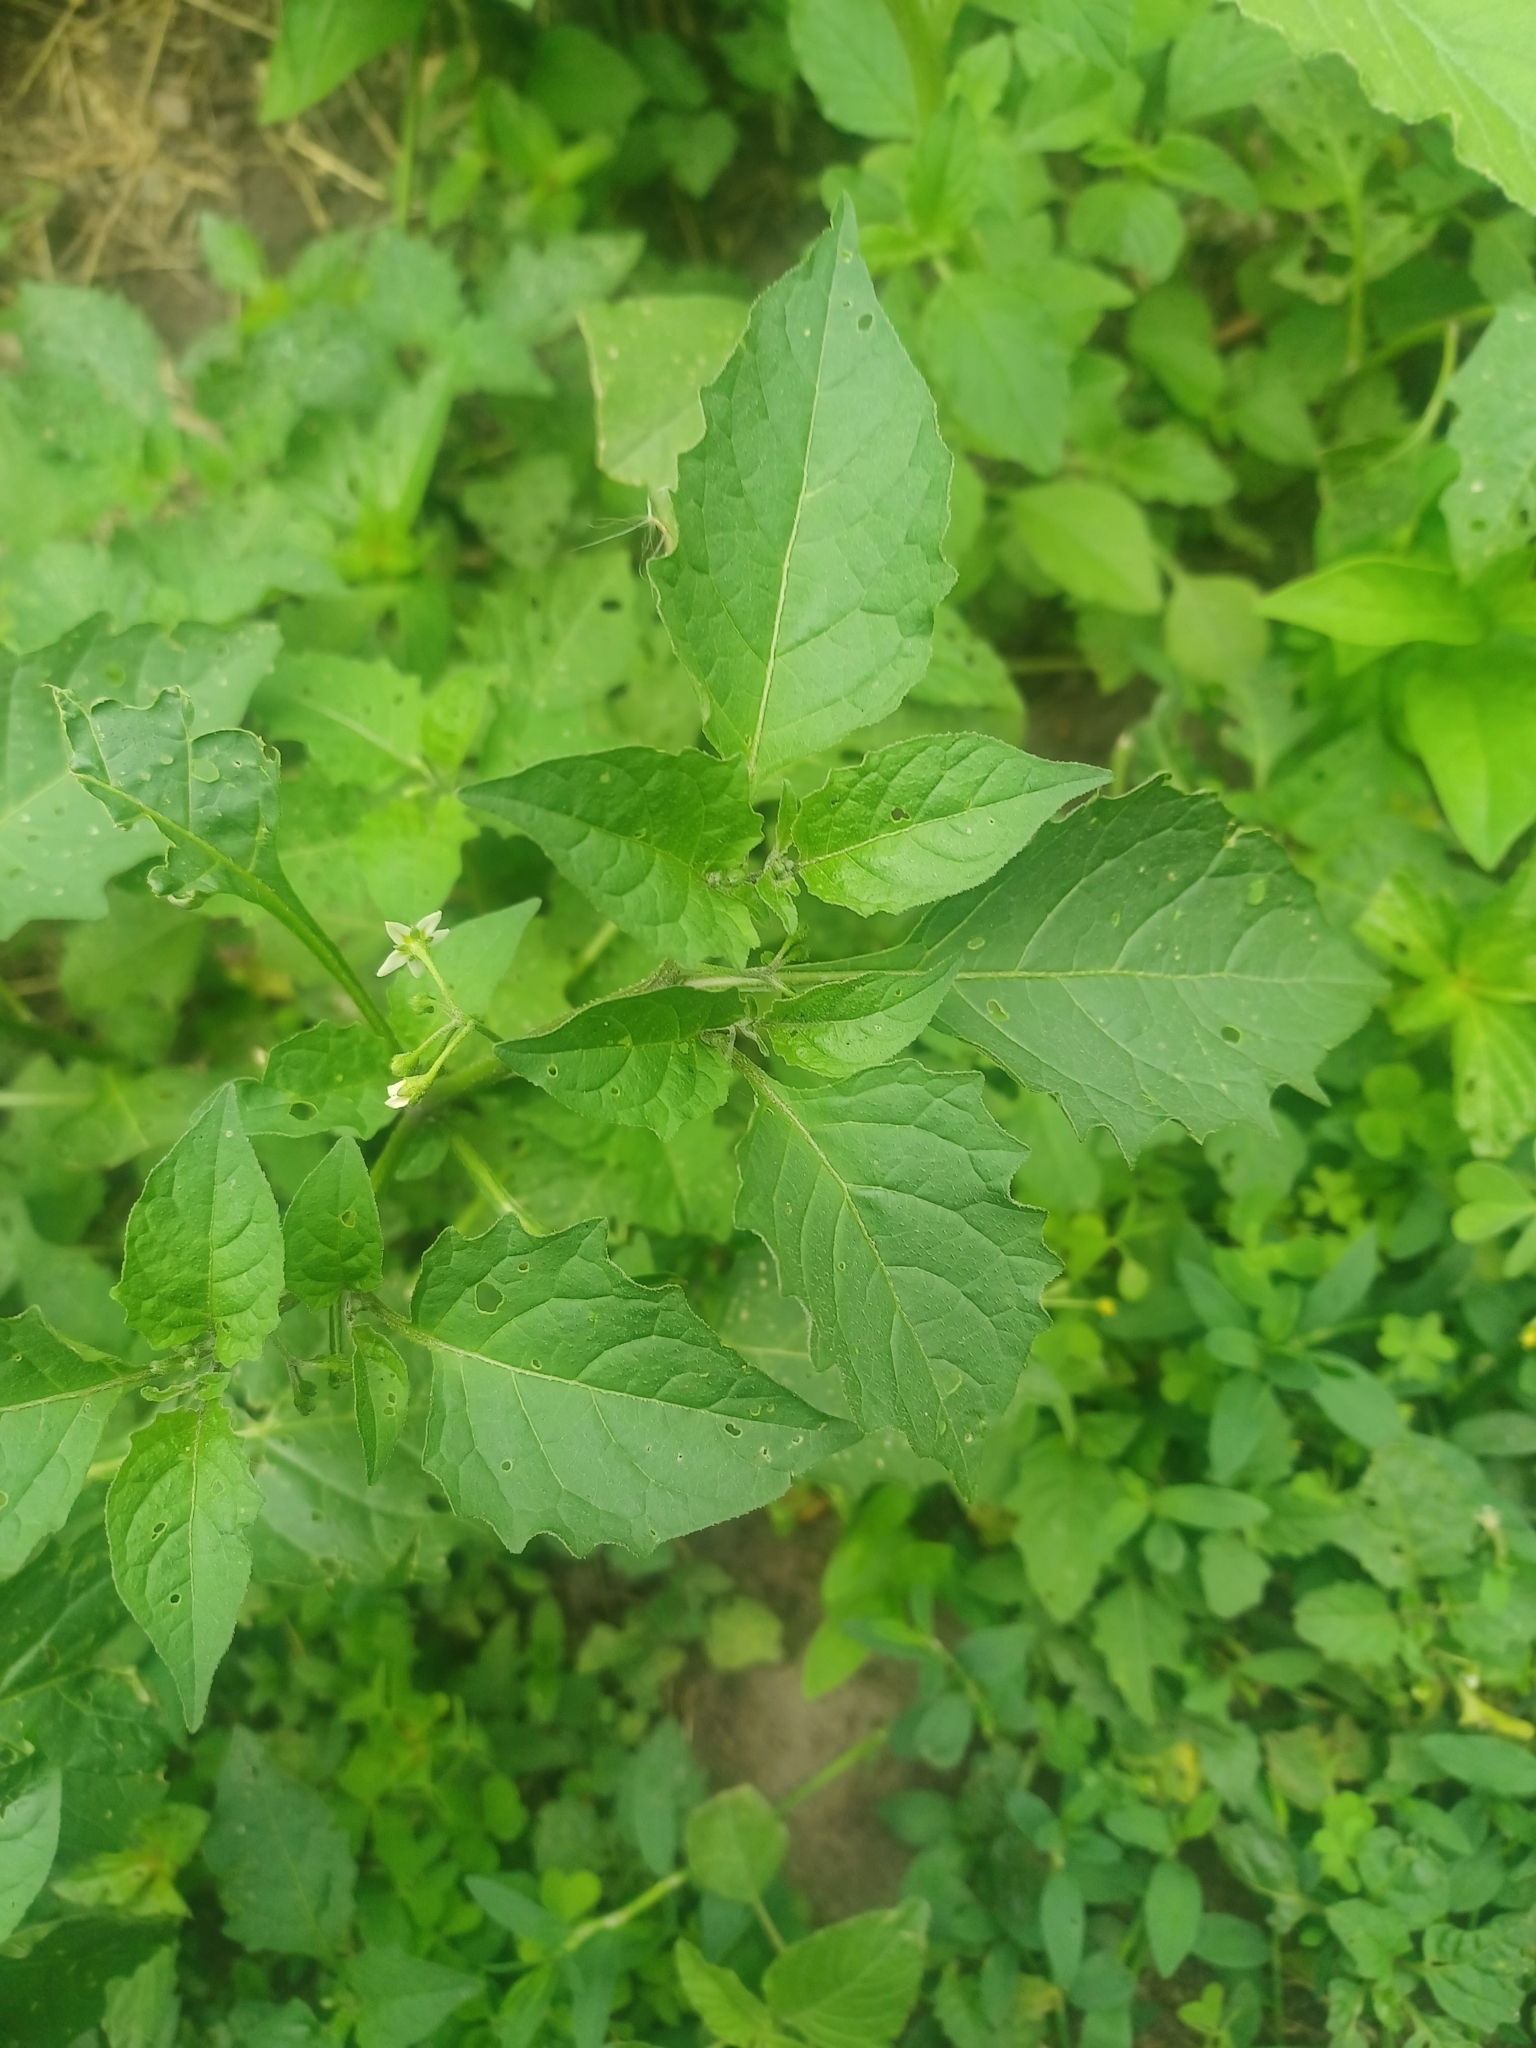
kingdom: Plantae
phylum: Tracheophyta
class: Magnoliopsida
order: Solanales
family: Solanaceae
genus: Solanum
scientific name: Solanum emulans
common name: Eastern black nightshade
